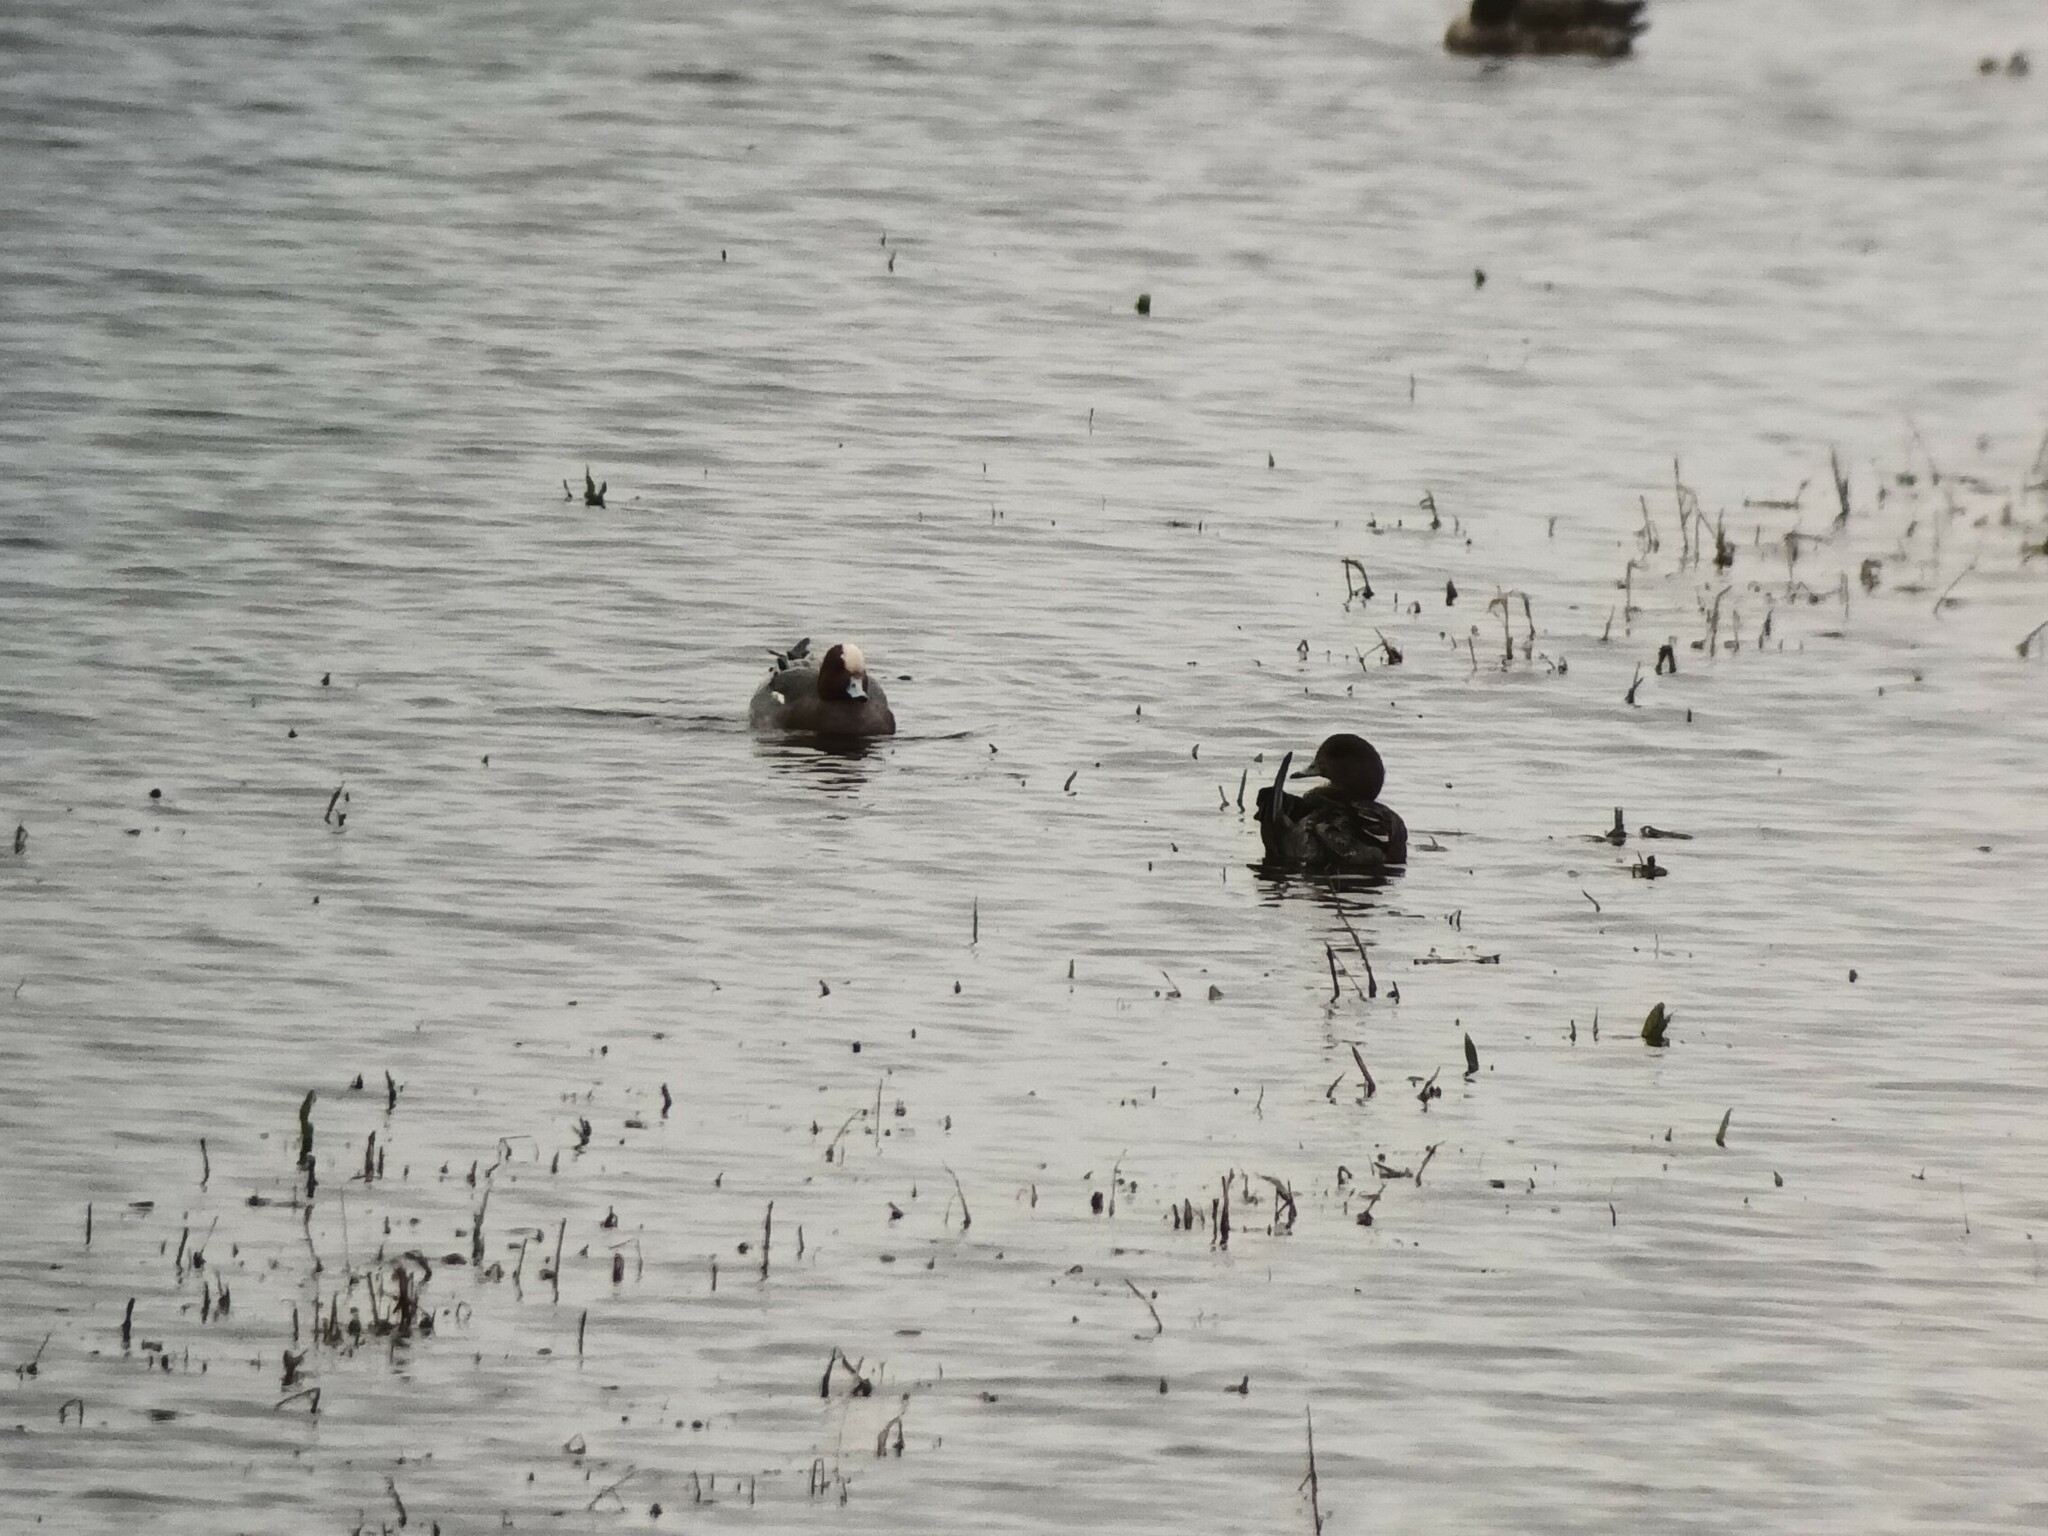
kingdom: Animalia
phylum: Chordata
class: Aves
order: Anseriformes
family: Anatidae
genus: Mareca
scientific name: Mareca penelope
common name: Eurasian wigeon
